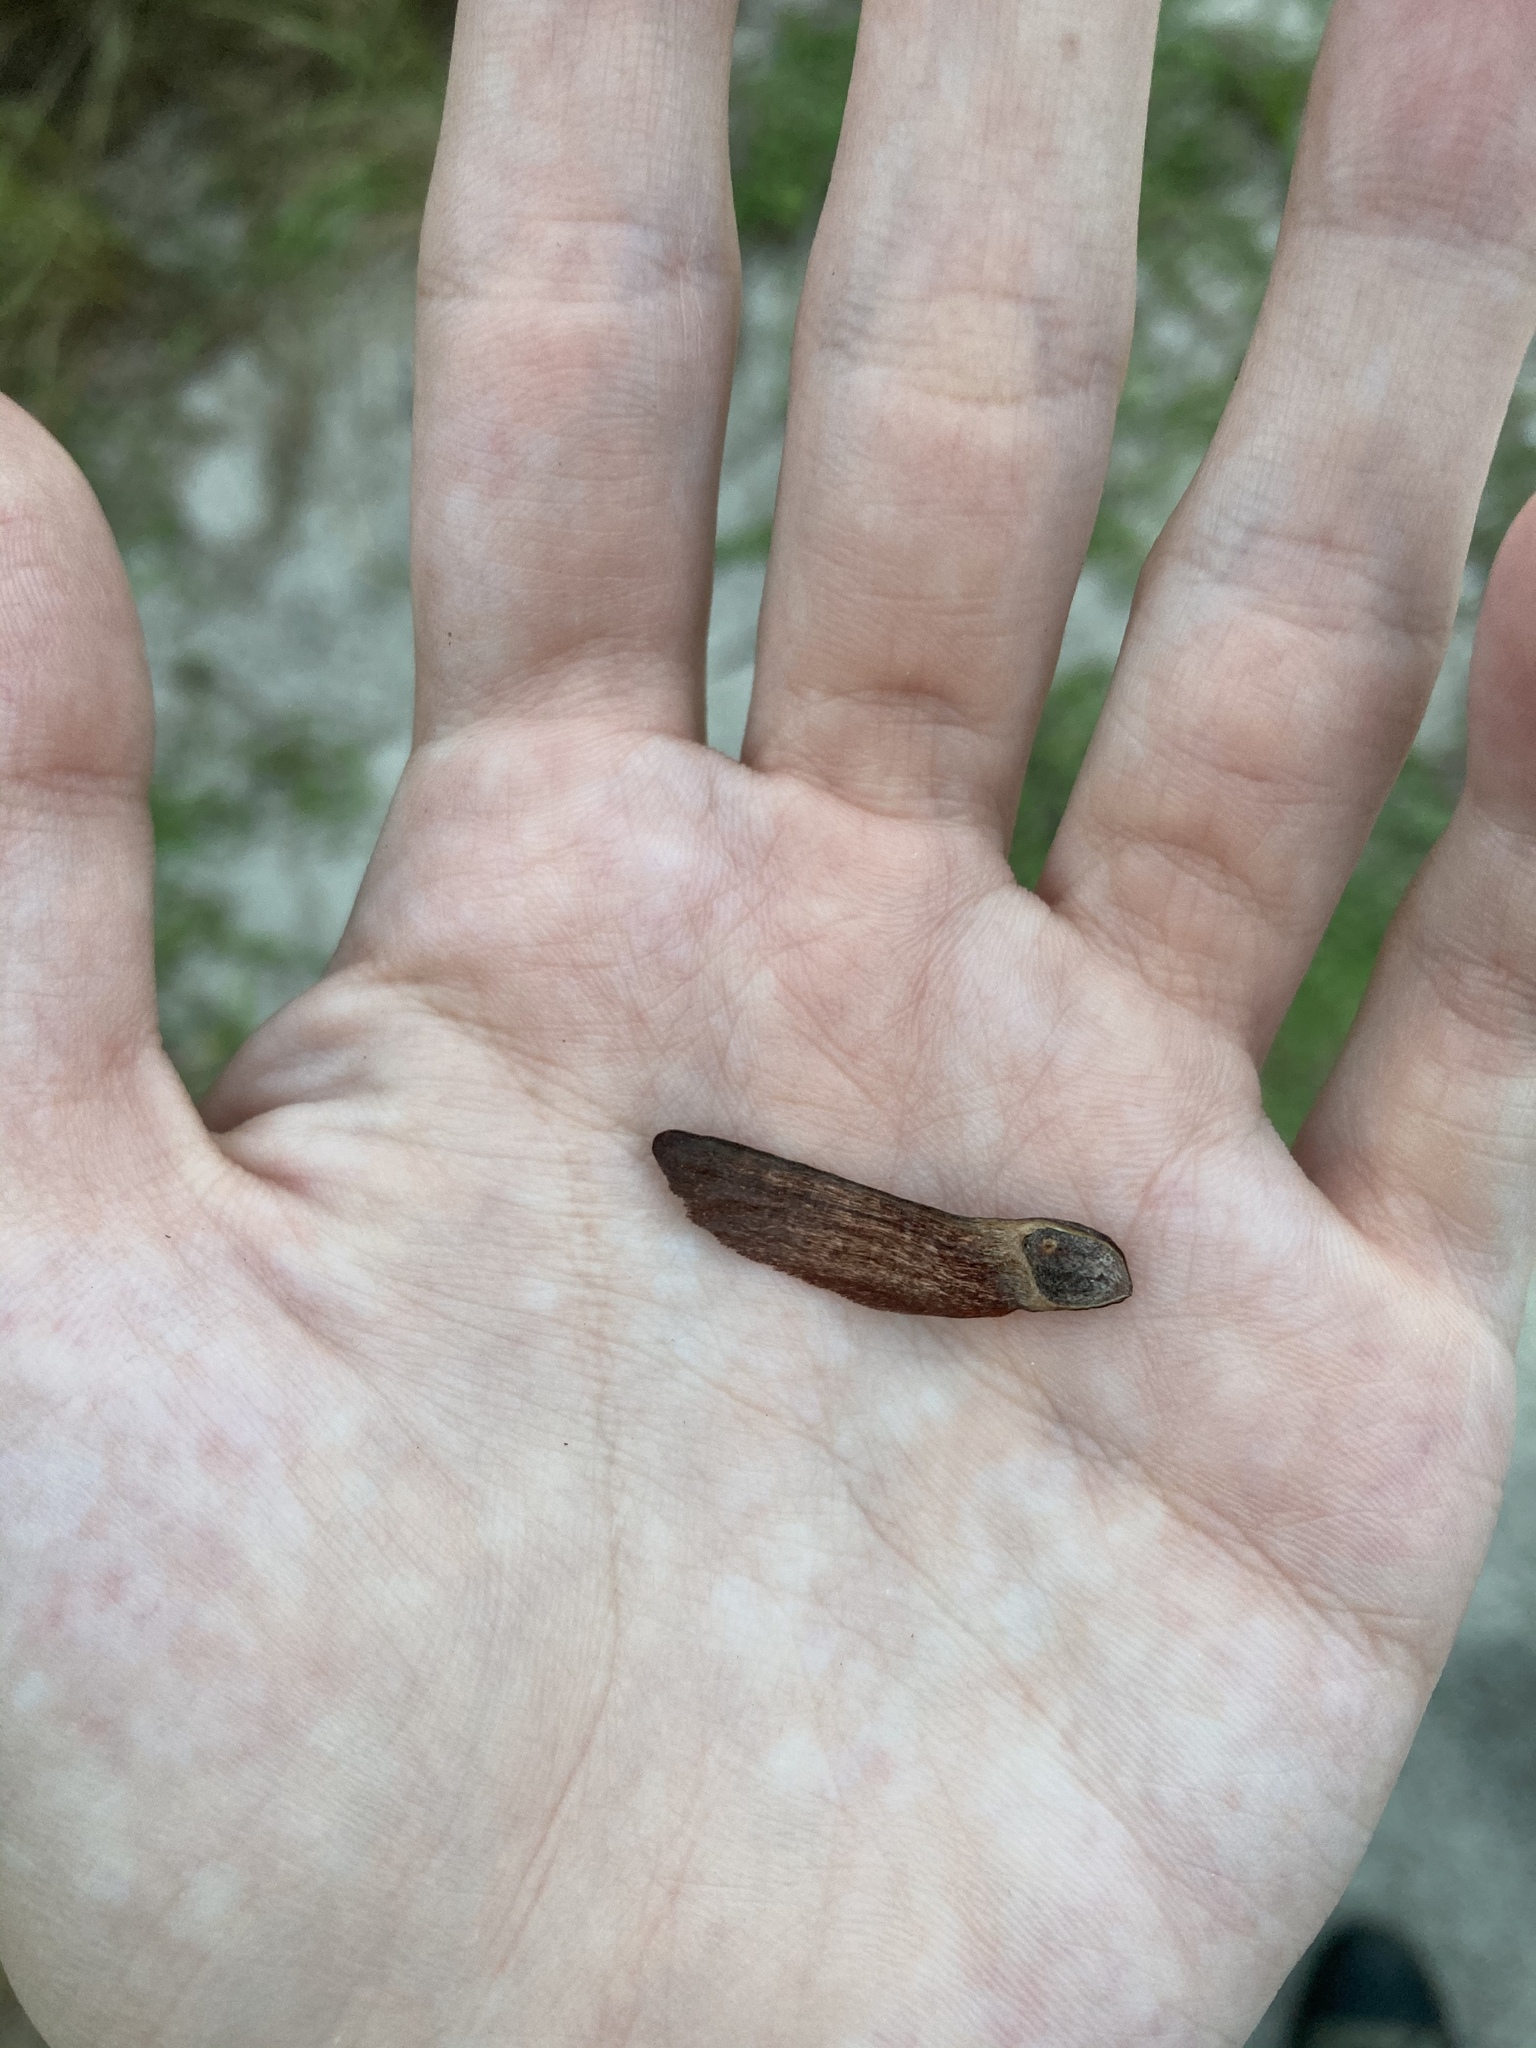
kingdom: Plantae
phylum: Tracheophyta
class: Pinopsida
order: Pinales
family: Pinaceae
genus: Pinus
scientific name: Pinus elliottii
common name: Slash pine
